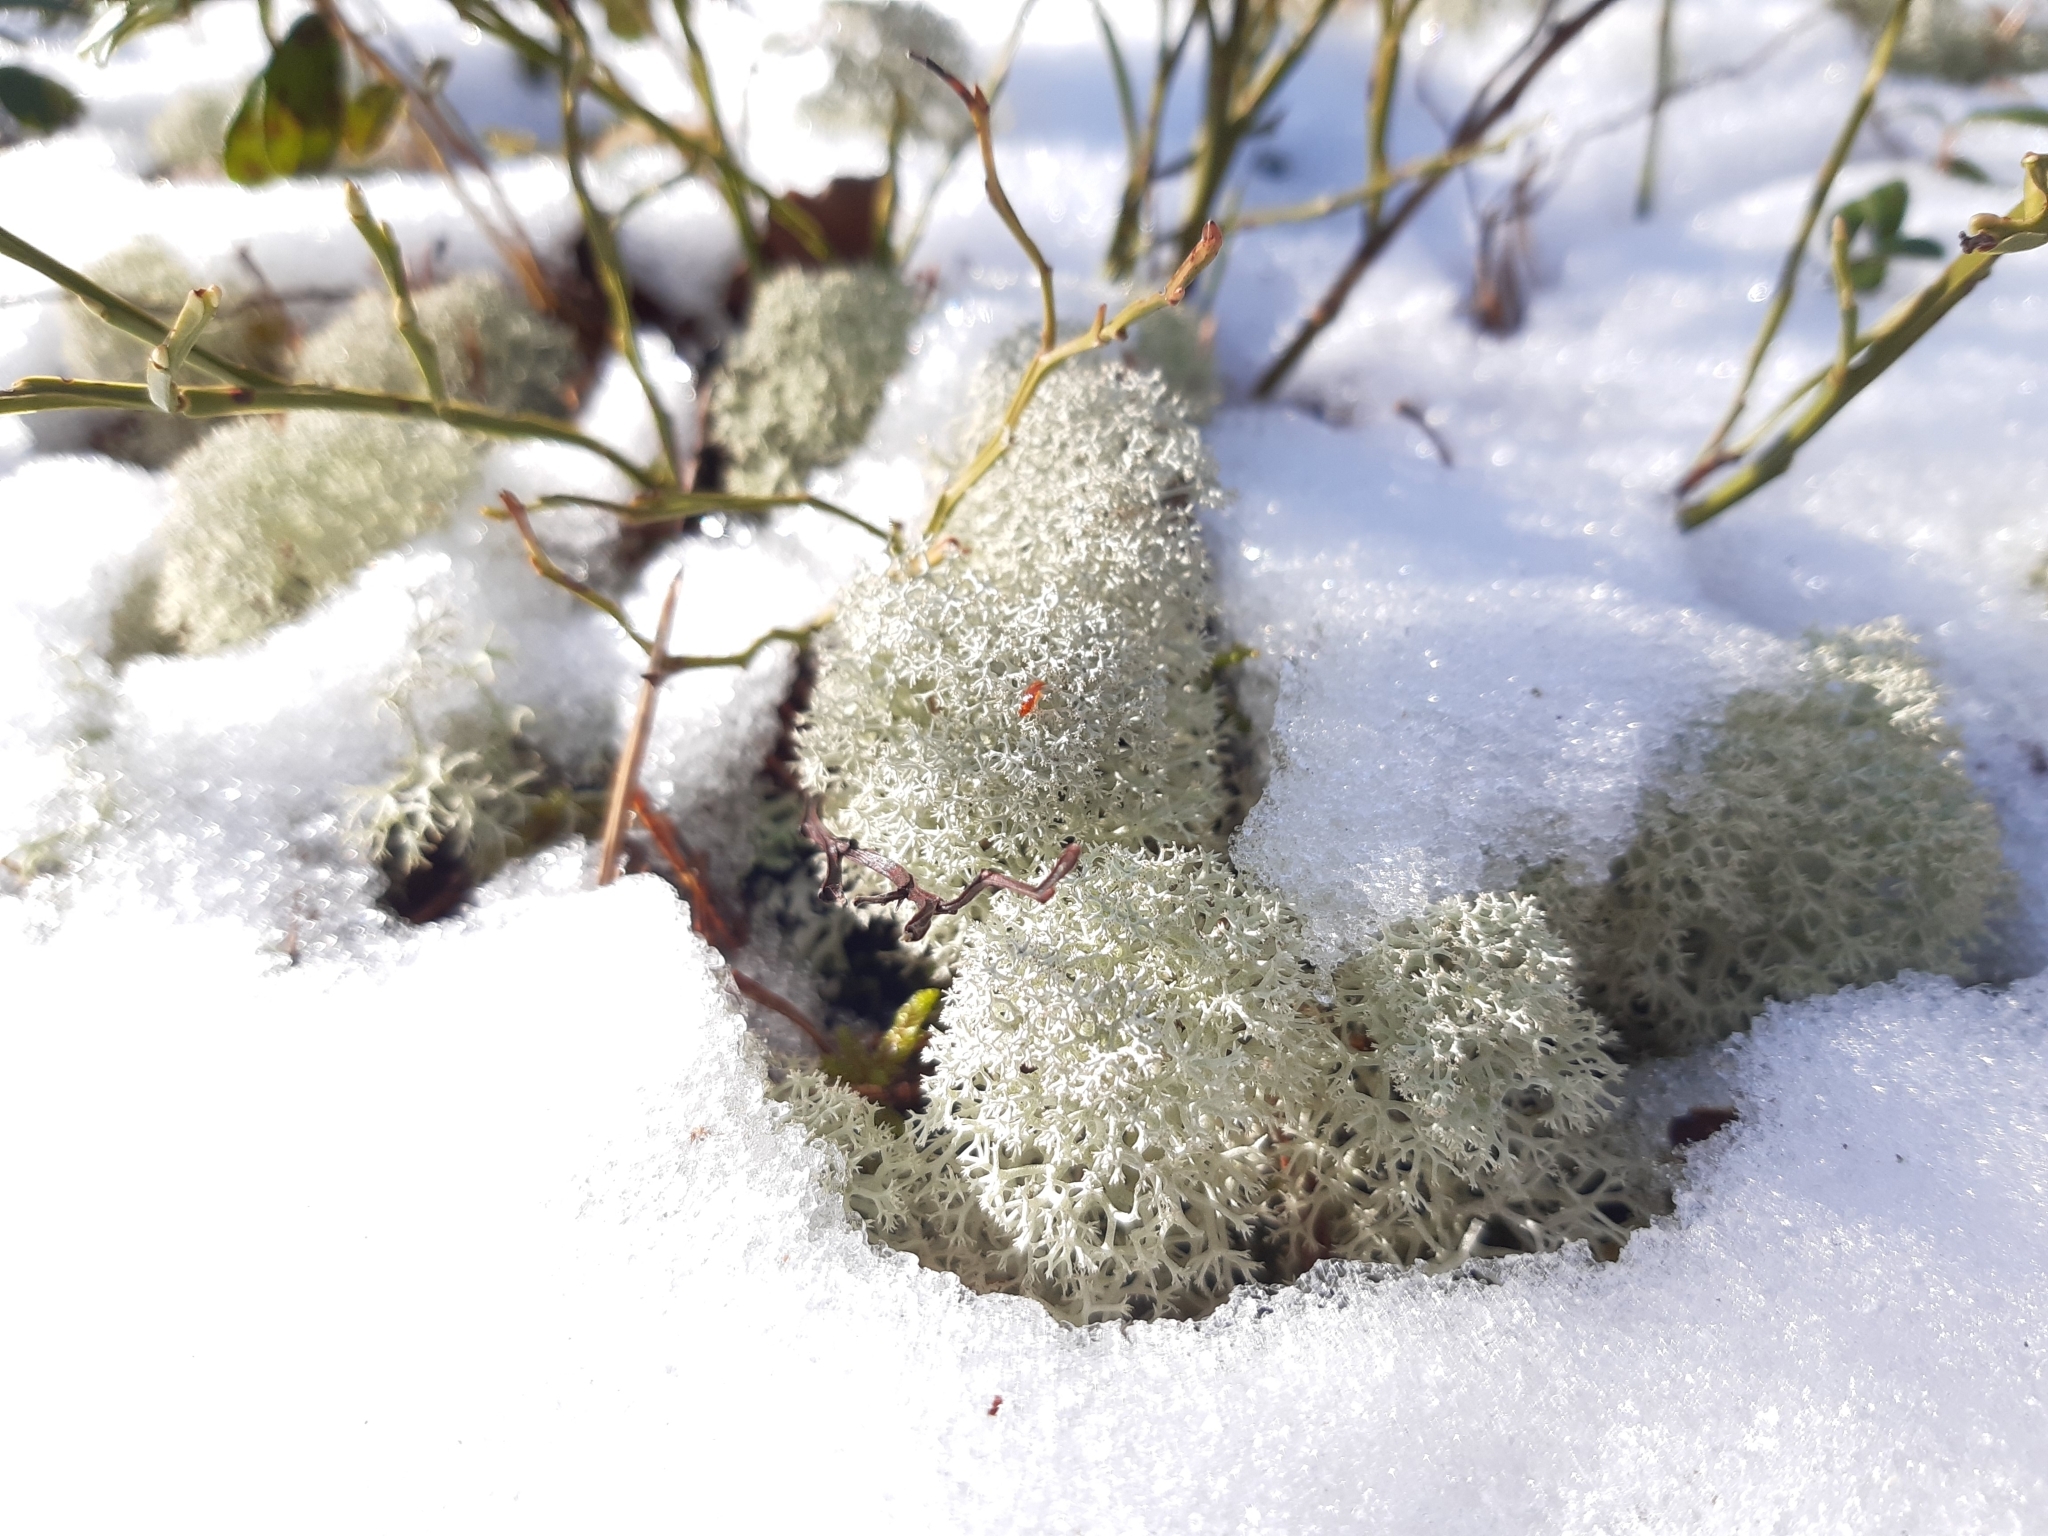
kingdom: Fungi
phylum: Ascomycota
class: Lecanoromycetes
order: Lecanorales
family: Cladoniaceae
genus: Cladonia
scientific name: Cladonia stellaris
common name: Star-tipped reindeer lichen
